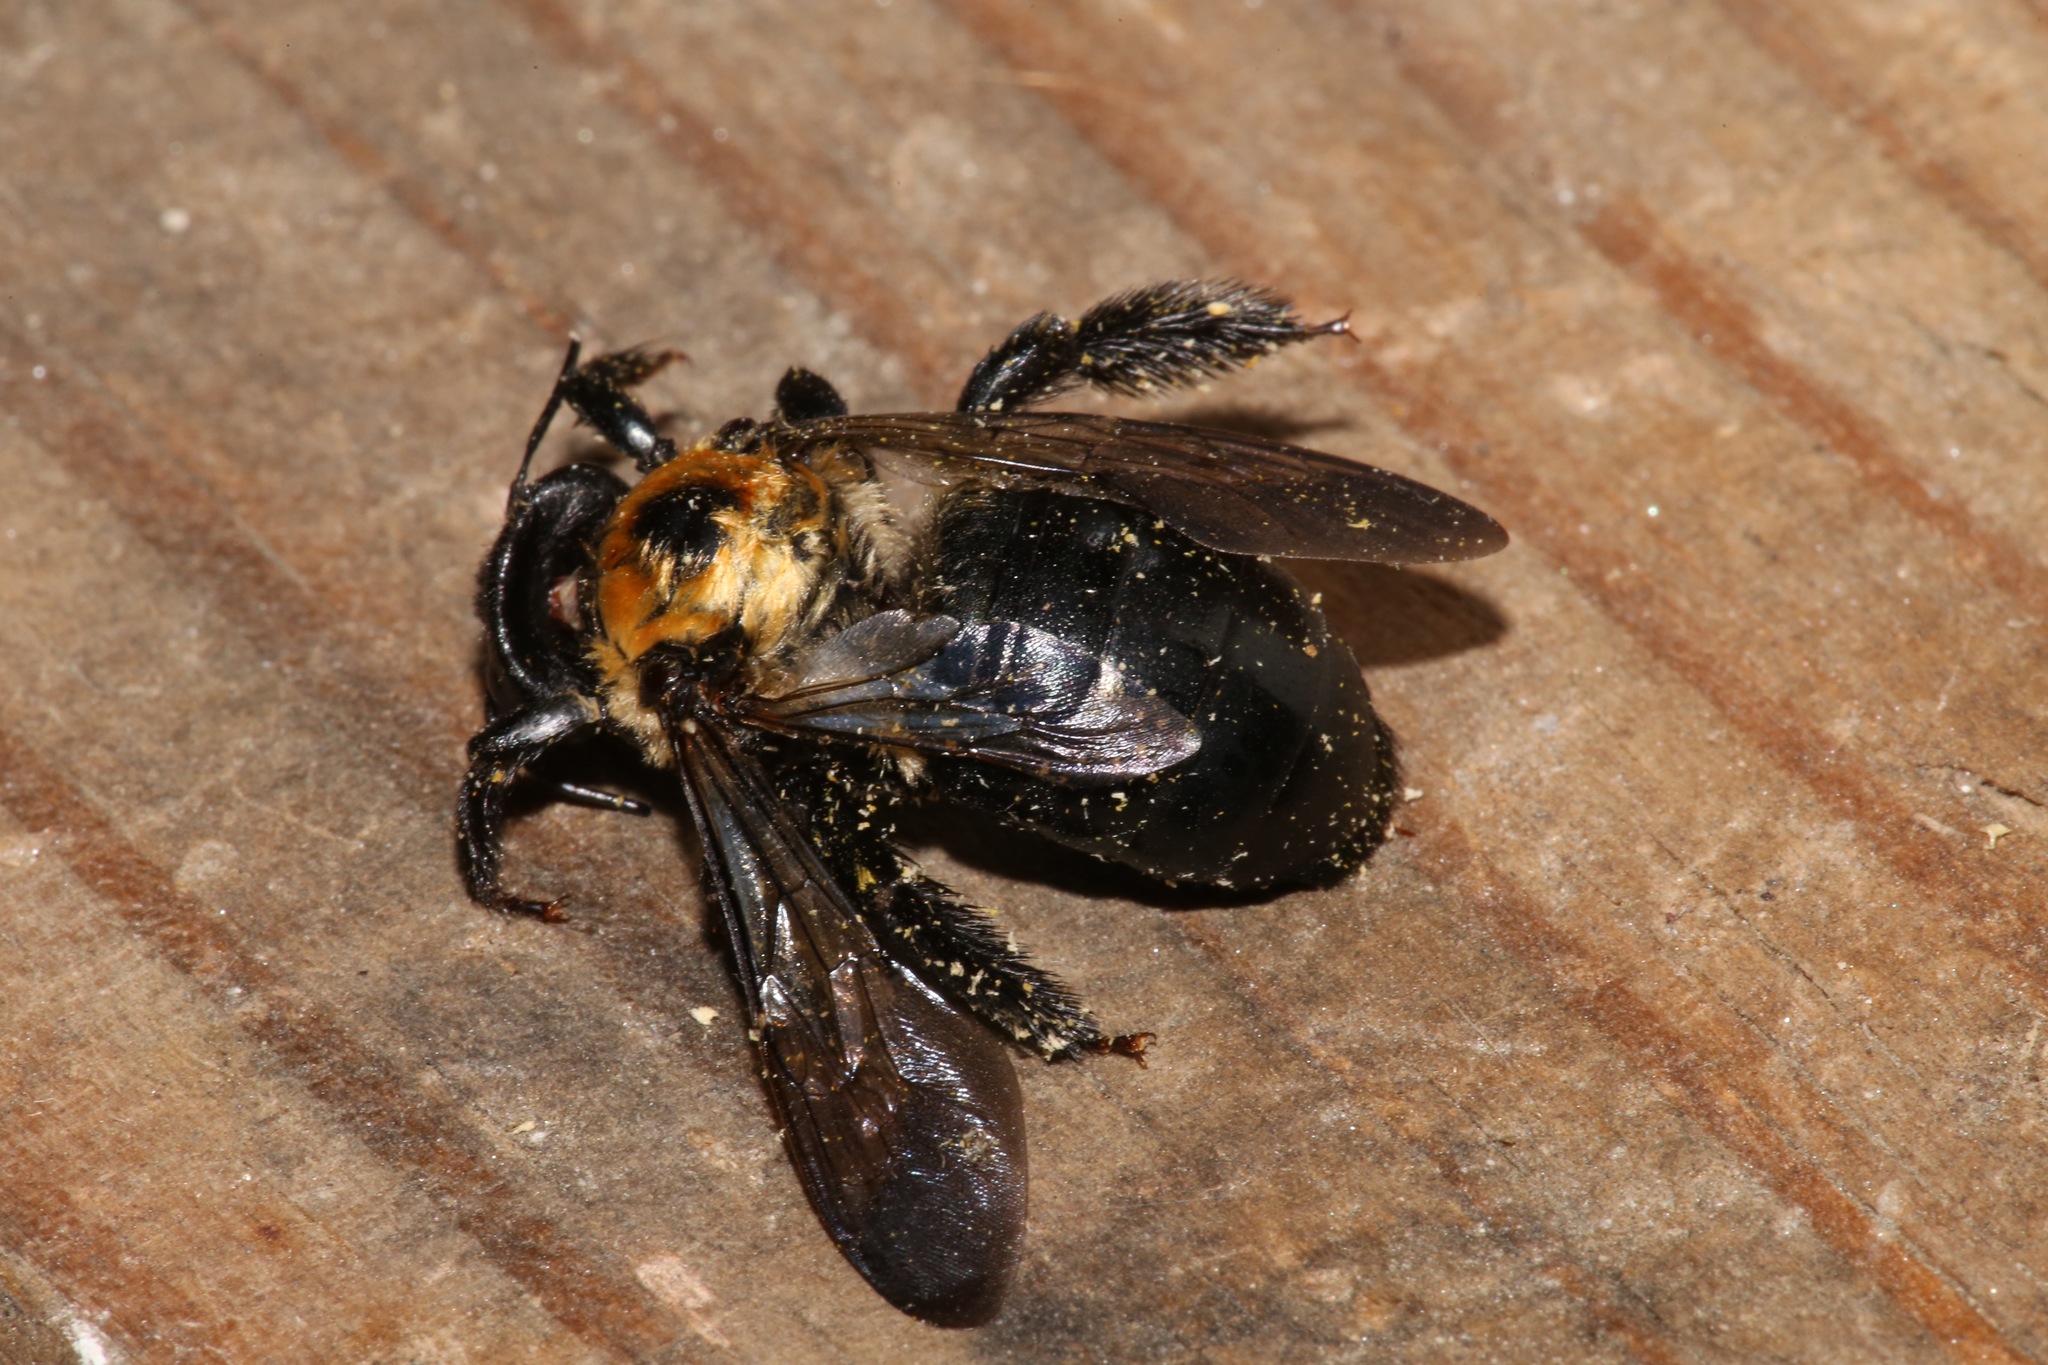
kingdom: Animalia
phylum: Arthropoda
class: Insecta
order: Hymenoptera
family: Apidae
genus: Xylocopa
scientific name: Xylocopa virginica
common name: Carpenter bee
